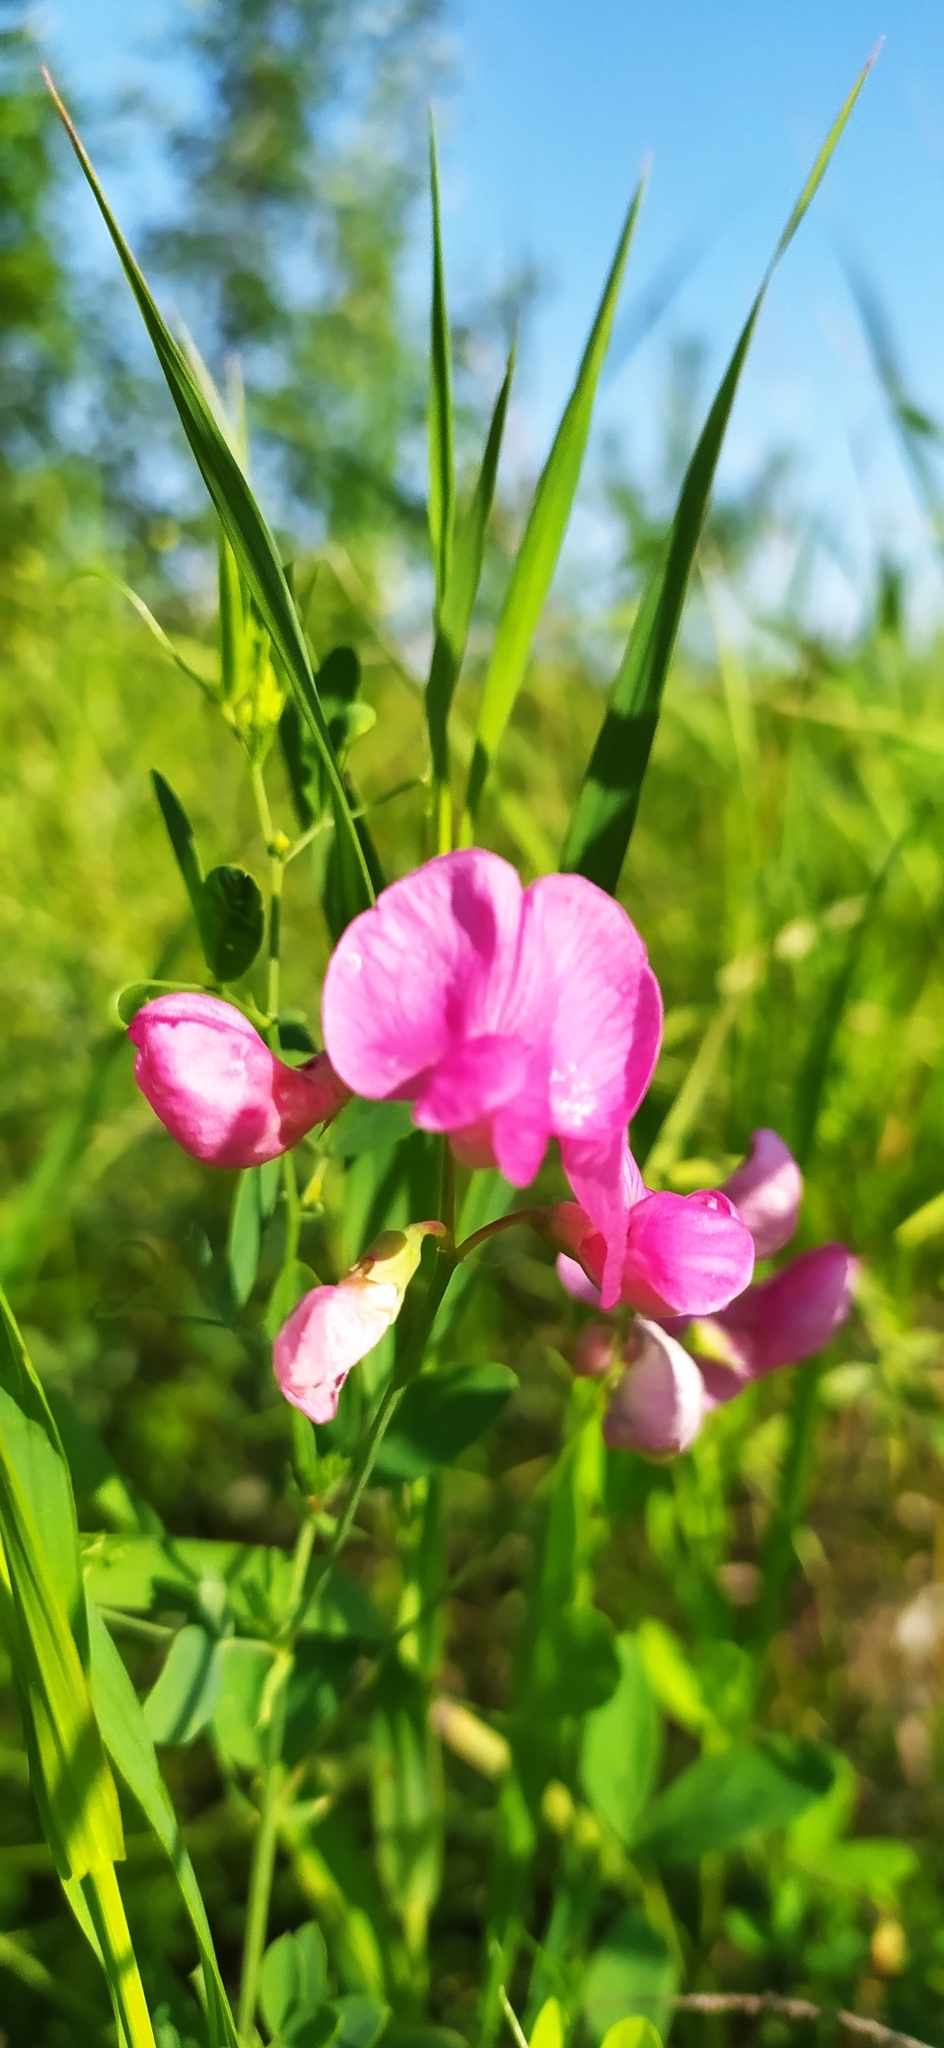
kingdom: Plantae
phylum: Tracheophyta
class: Magnoliopsida
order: Fabales
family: Fabaceae
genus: Lathyrus
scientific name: Lathyrus tuberosus
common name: Tuberous pea
